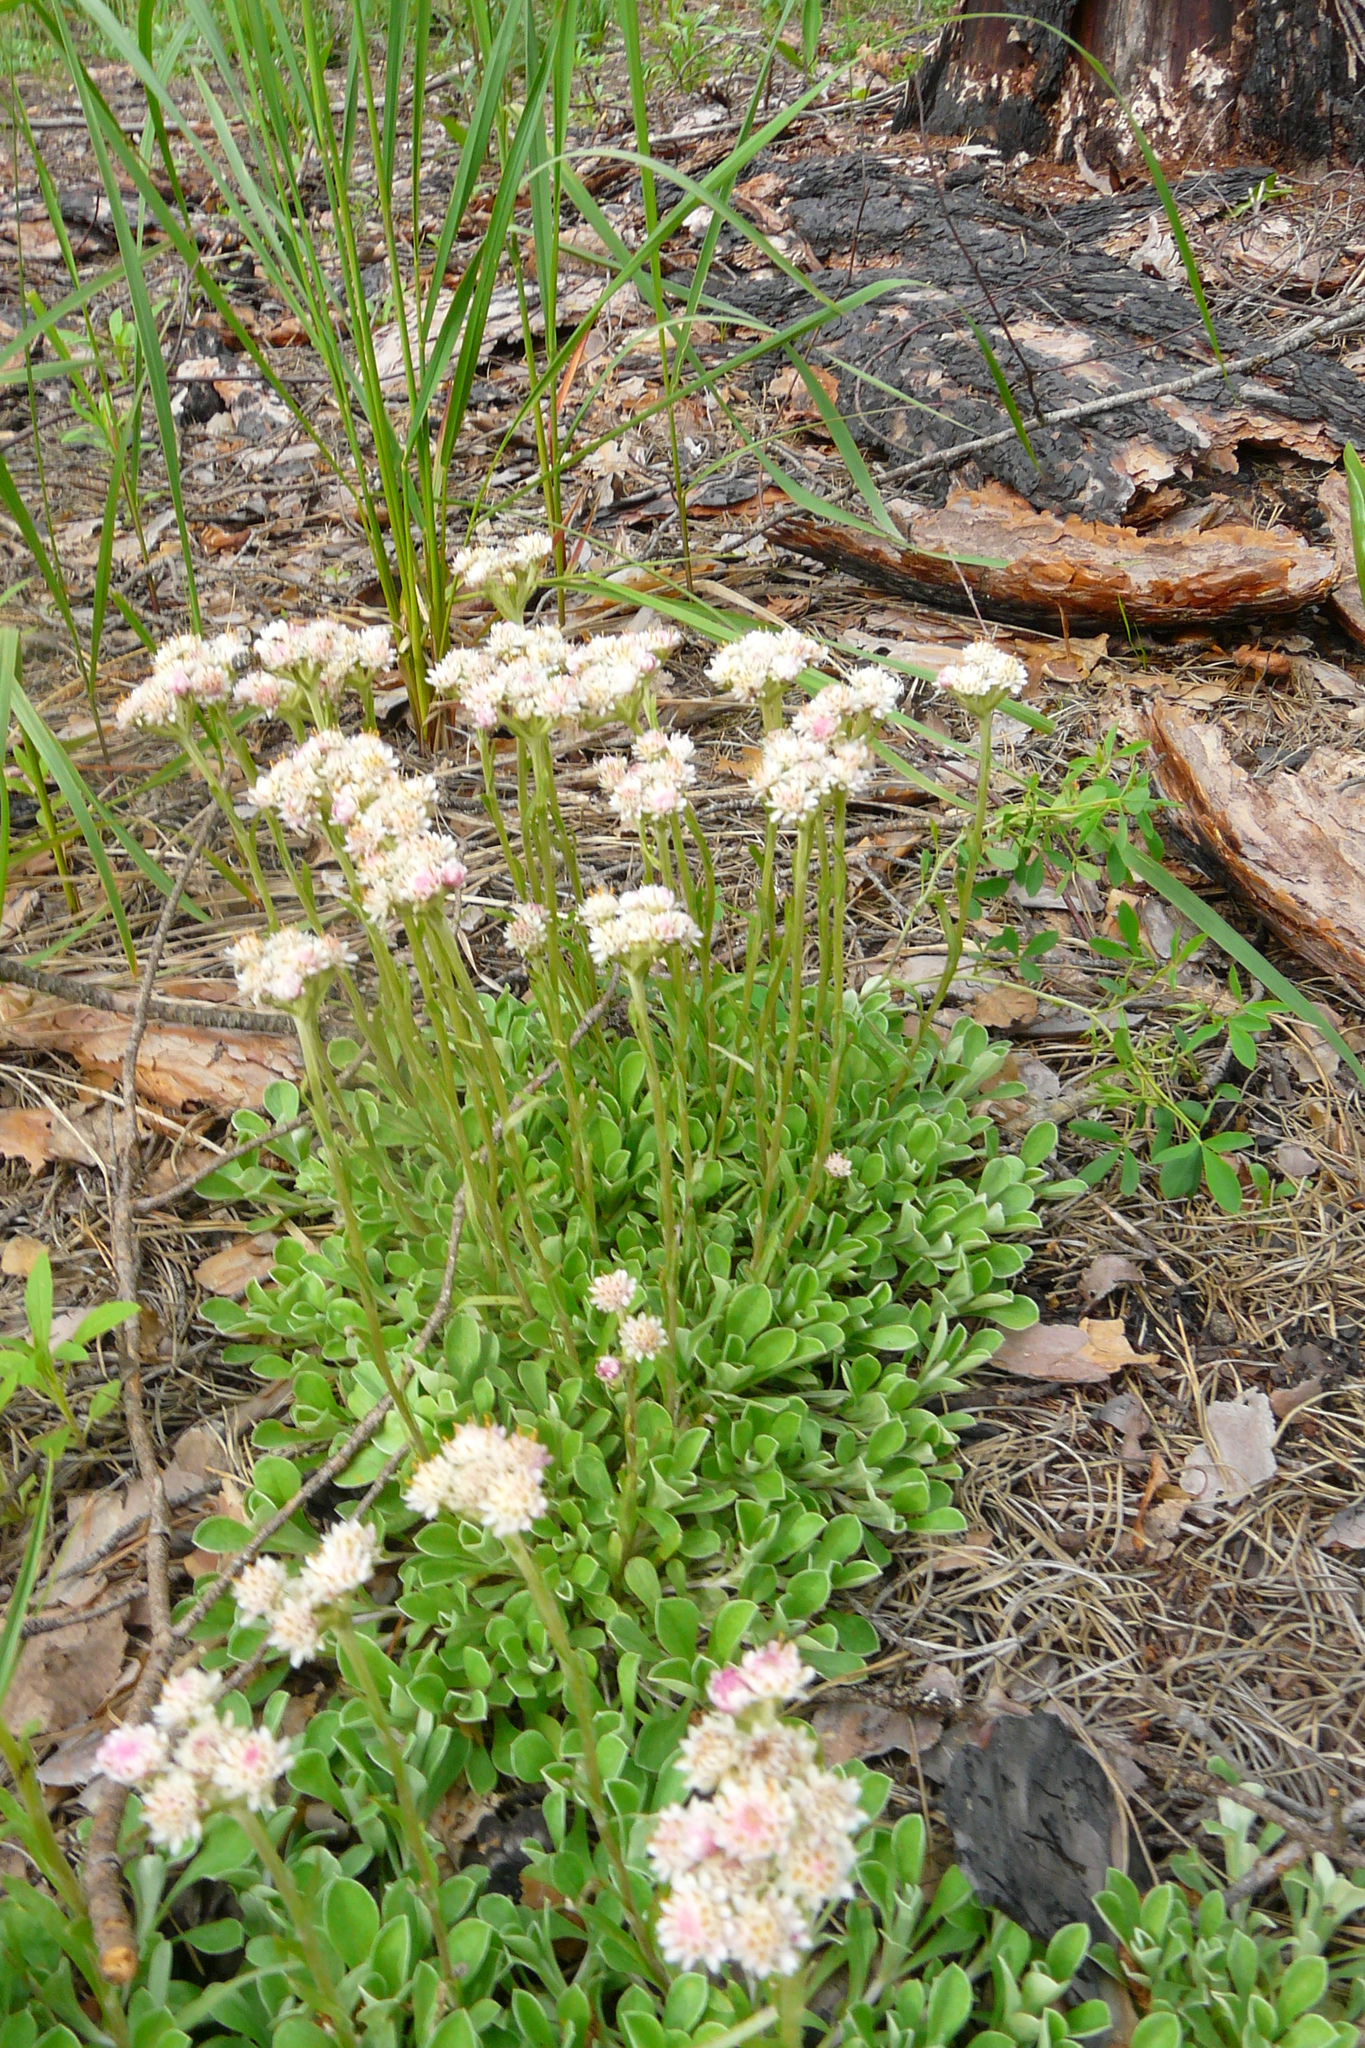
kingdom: Plantae
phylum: Tracheophyta
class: Magnoliopsida
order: Asterales
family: Asteraceae
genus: Antennaria
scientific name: Antennaria dioica
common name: Mountain everlasting
